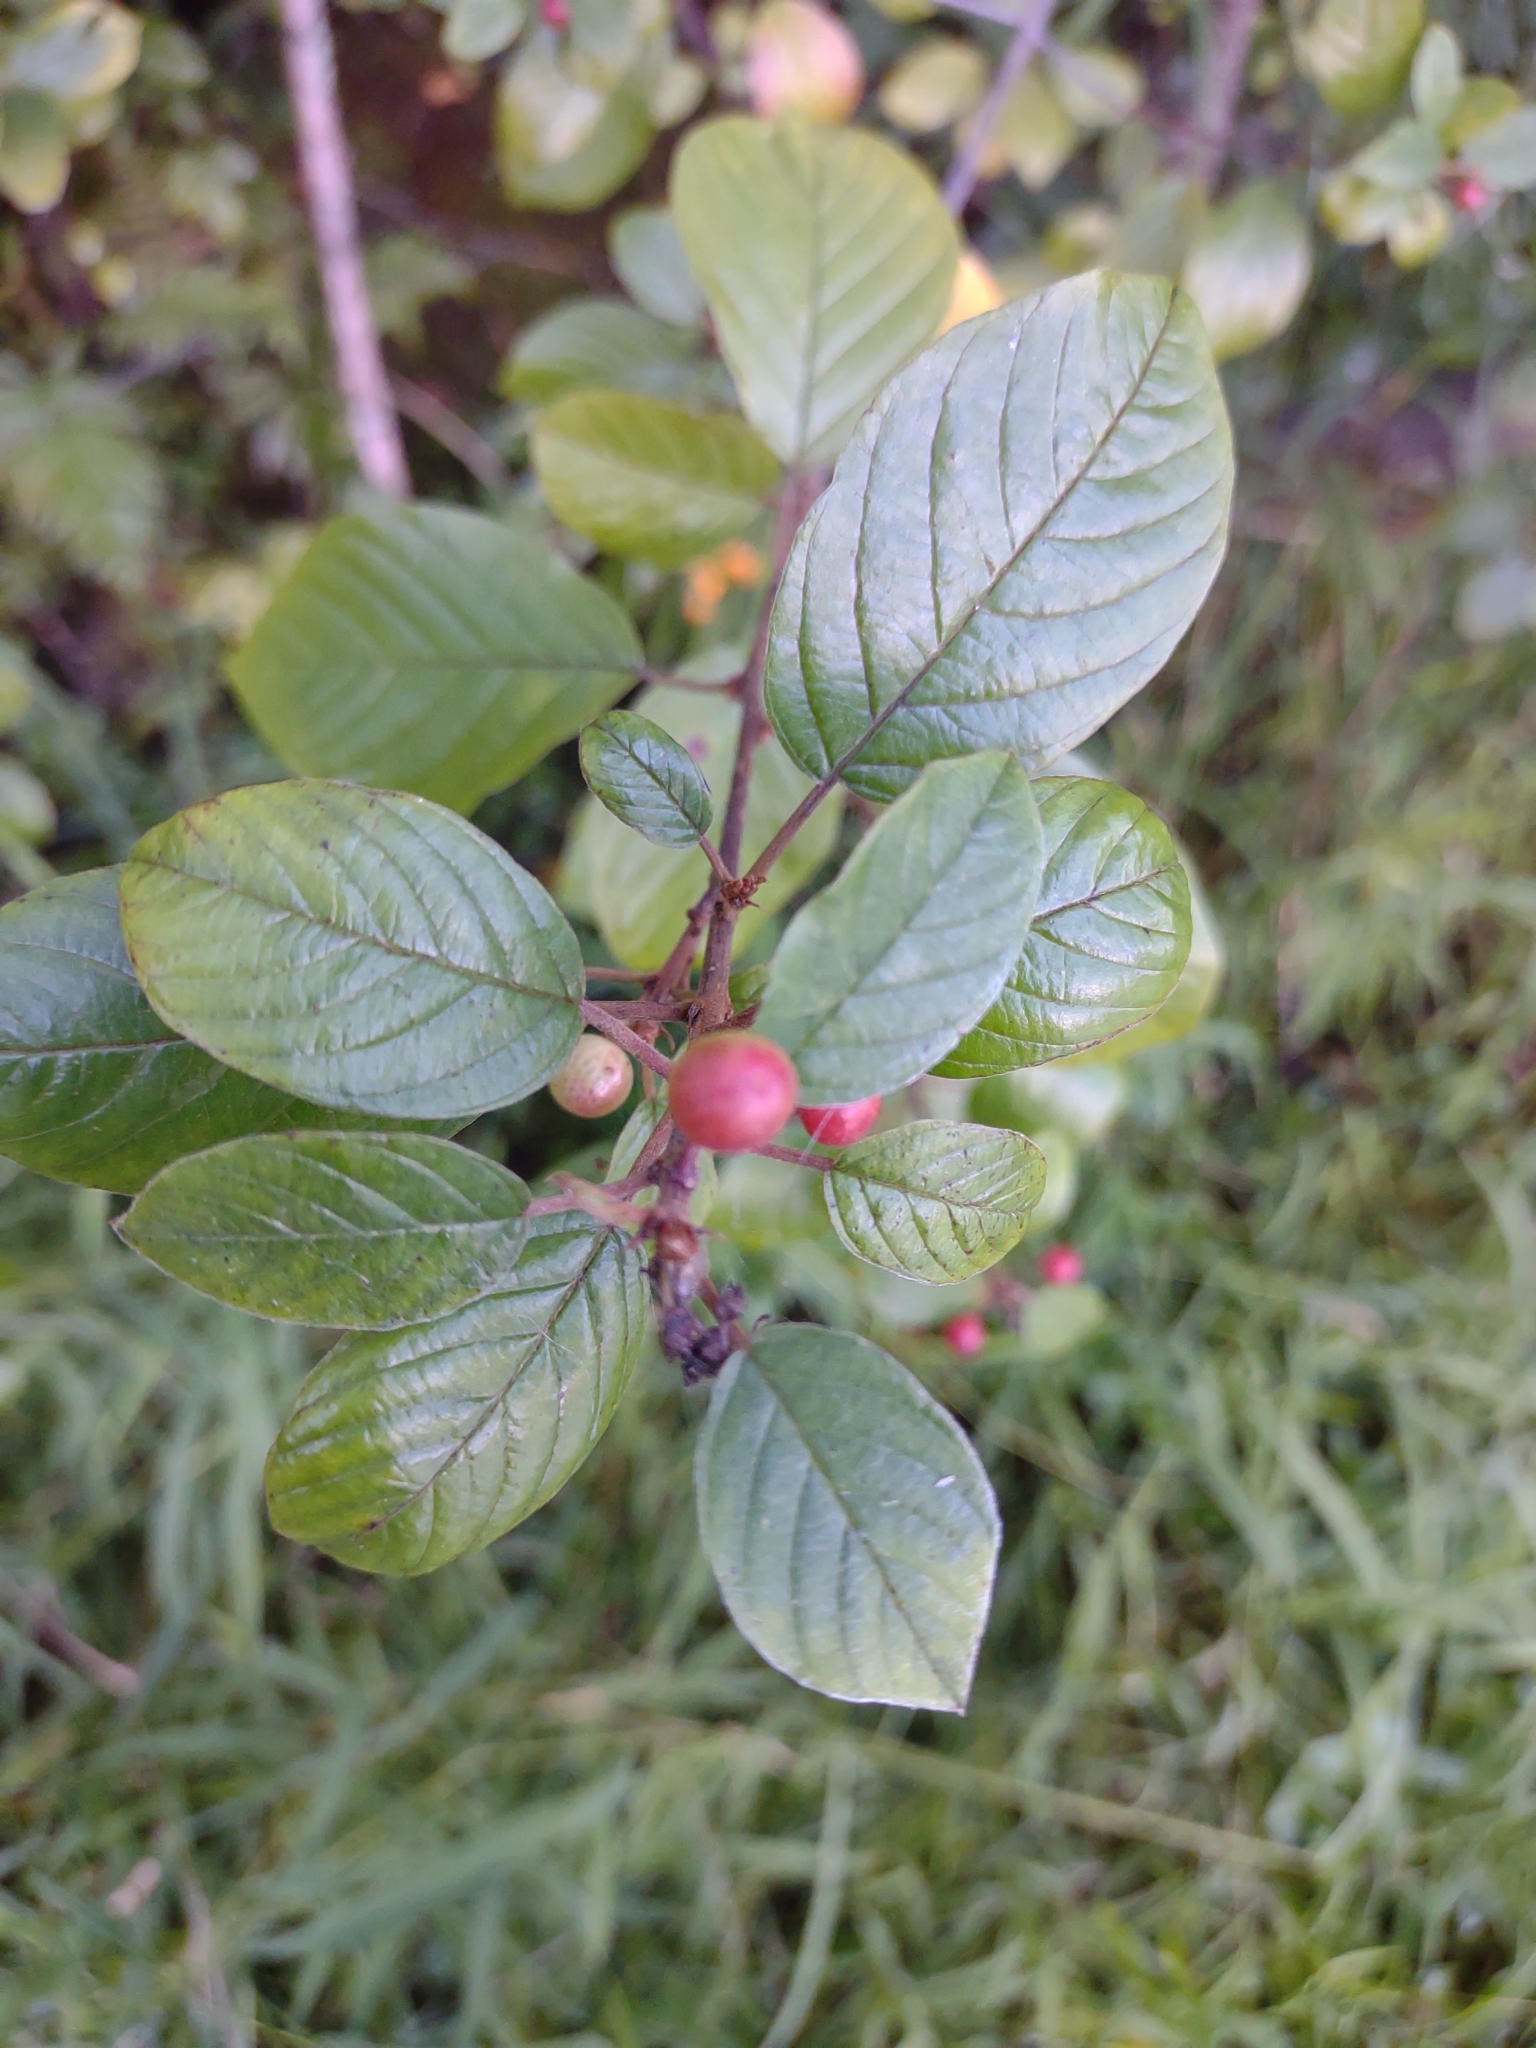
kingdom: Plantae
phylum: Tracheophyta
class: Magnoliopsida
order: Rosales
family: Rhamnaceae
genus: Frangula
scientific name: Frangula alnus
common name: Alder buckthorn
